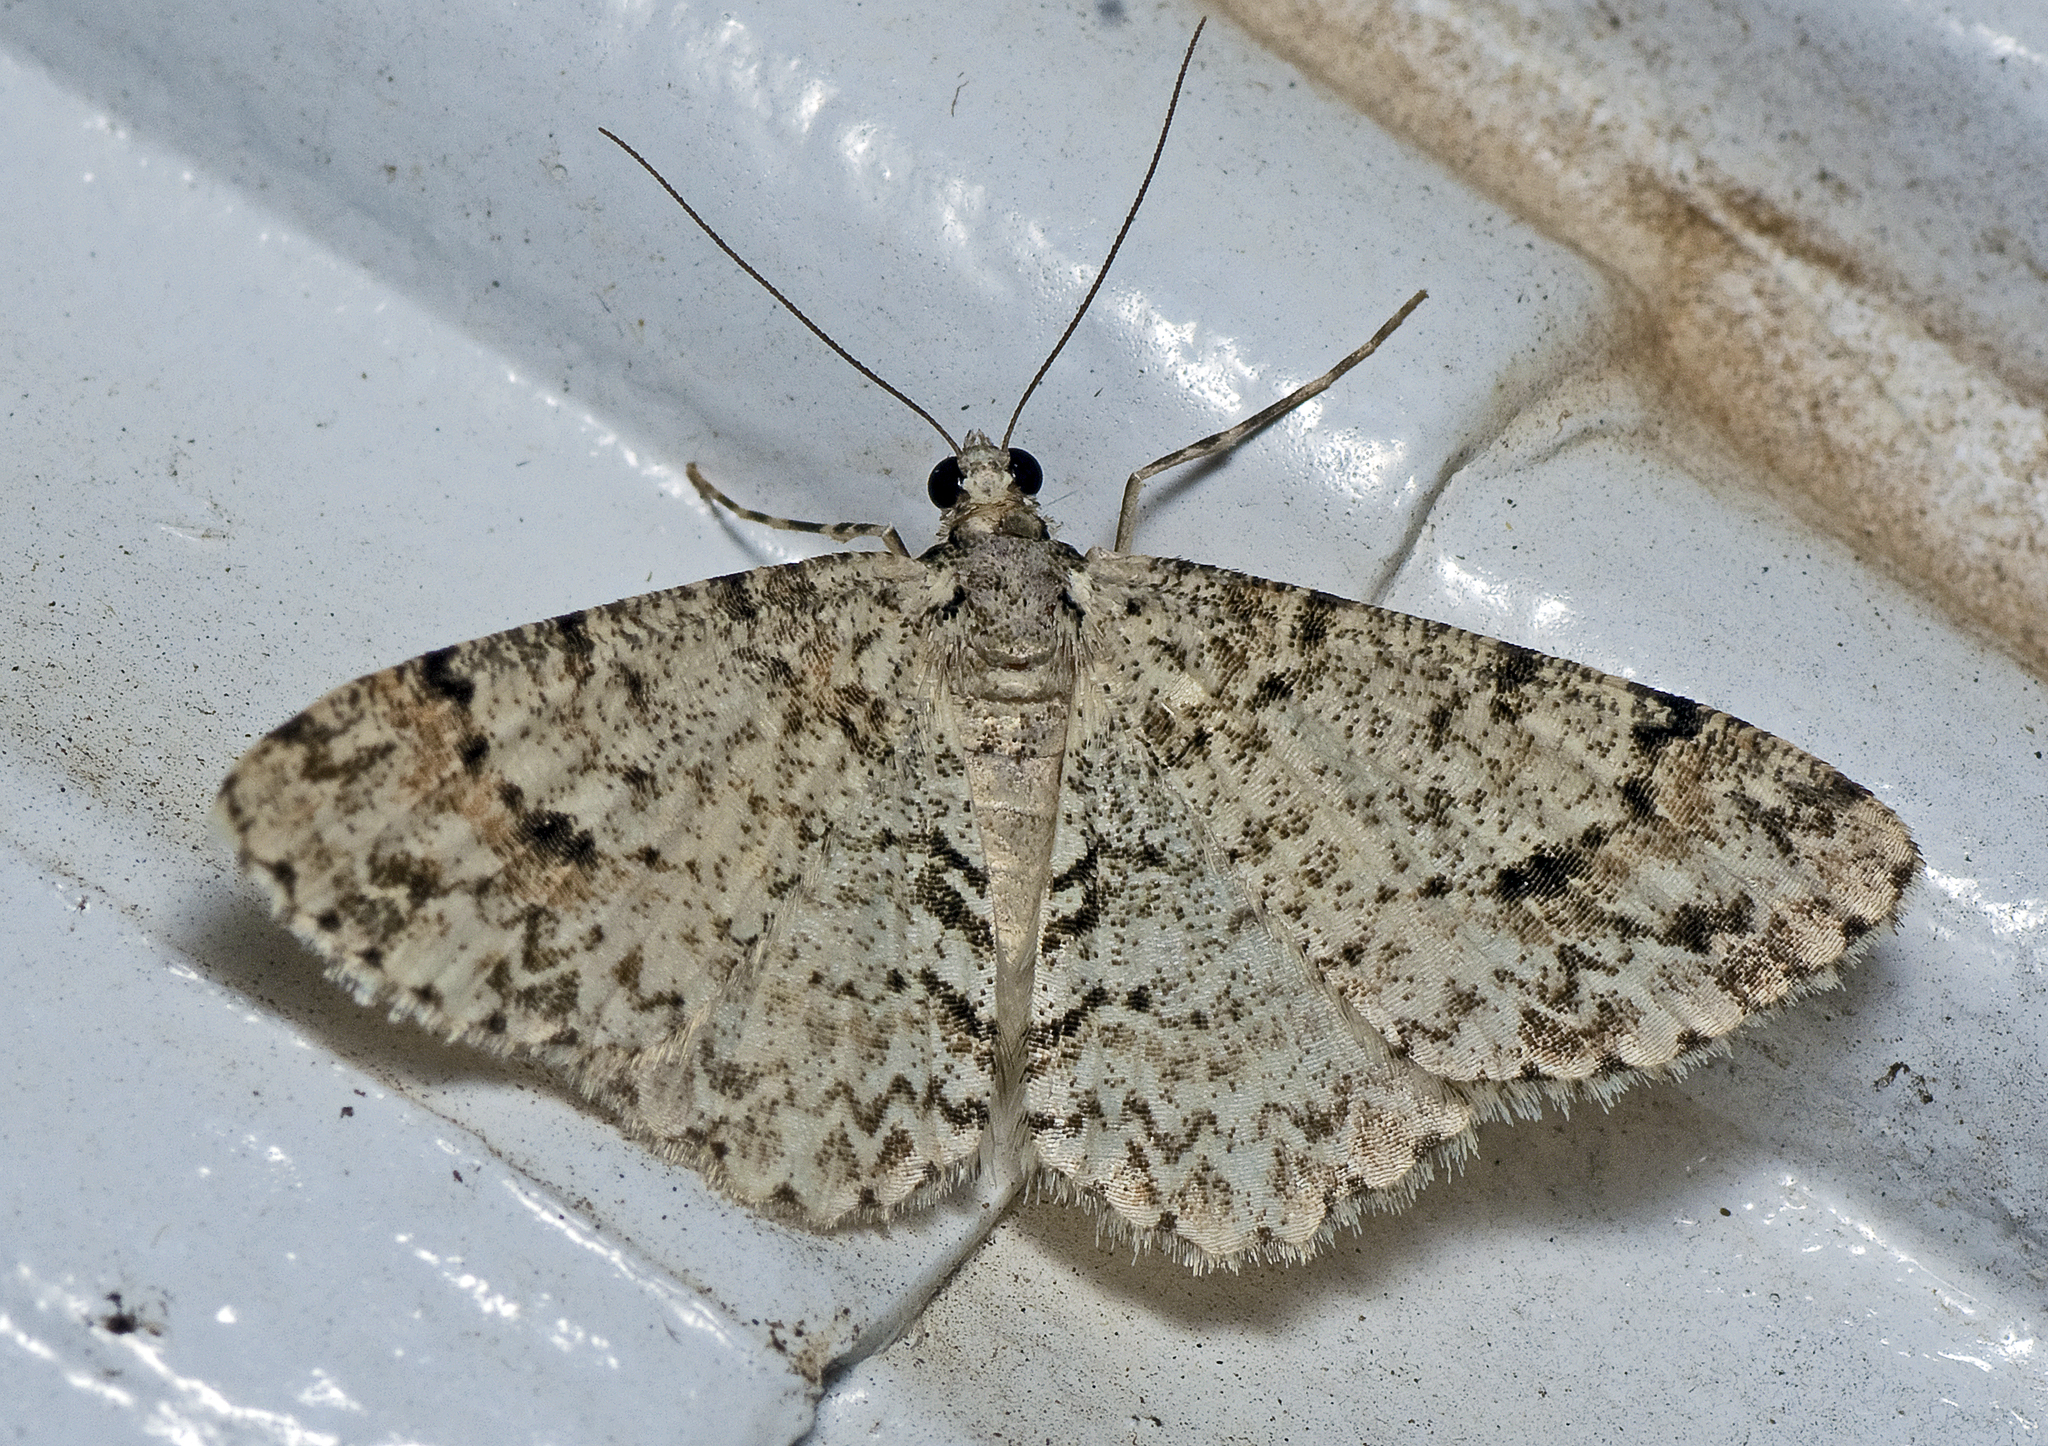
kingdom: Animalia
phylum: Arthropoda
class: Insecta
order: Lepidoptera
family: Geometridae
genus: Myrioblephara
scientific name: Myrioblephara desumpta
